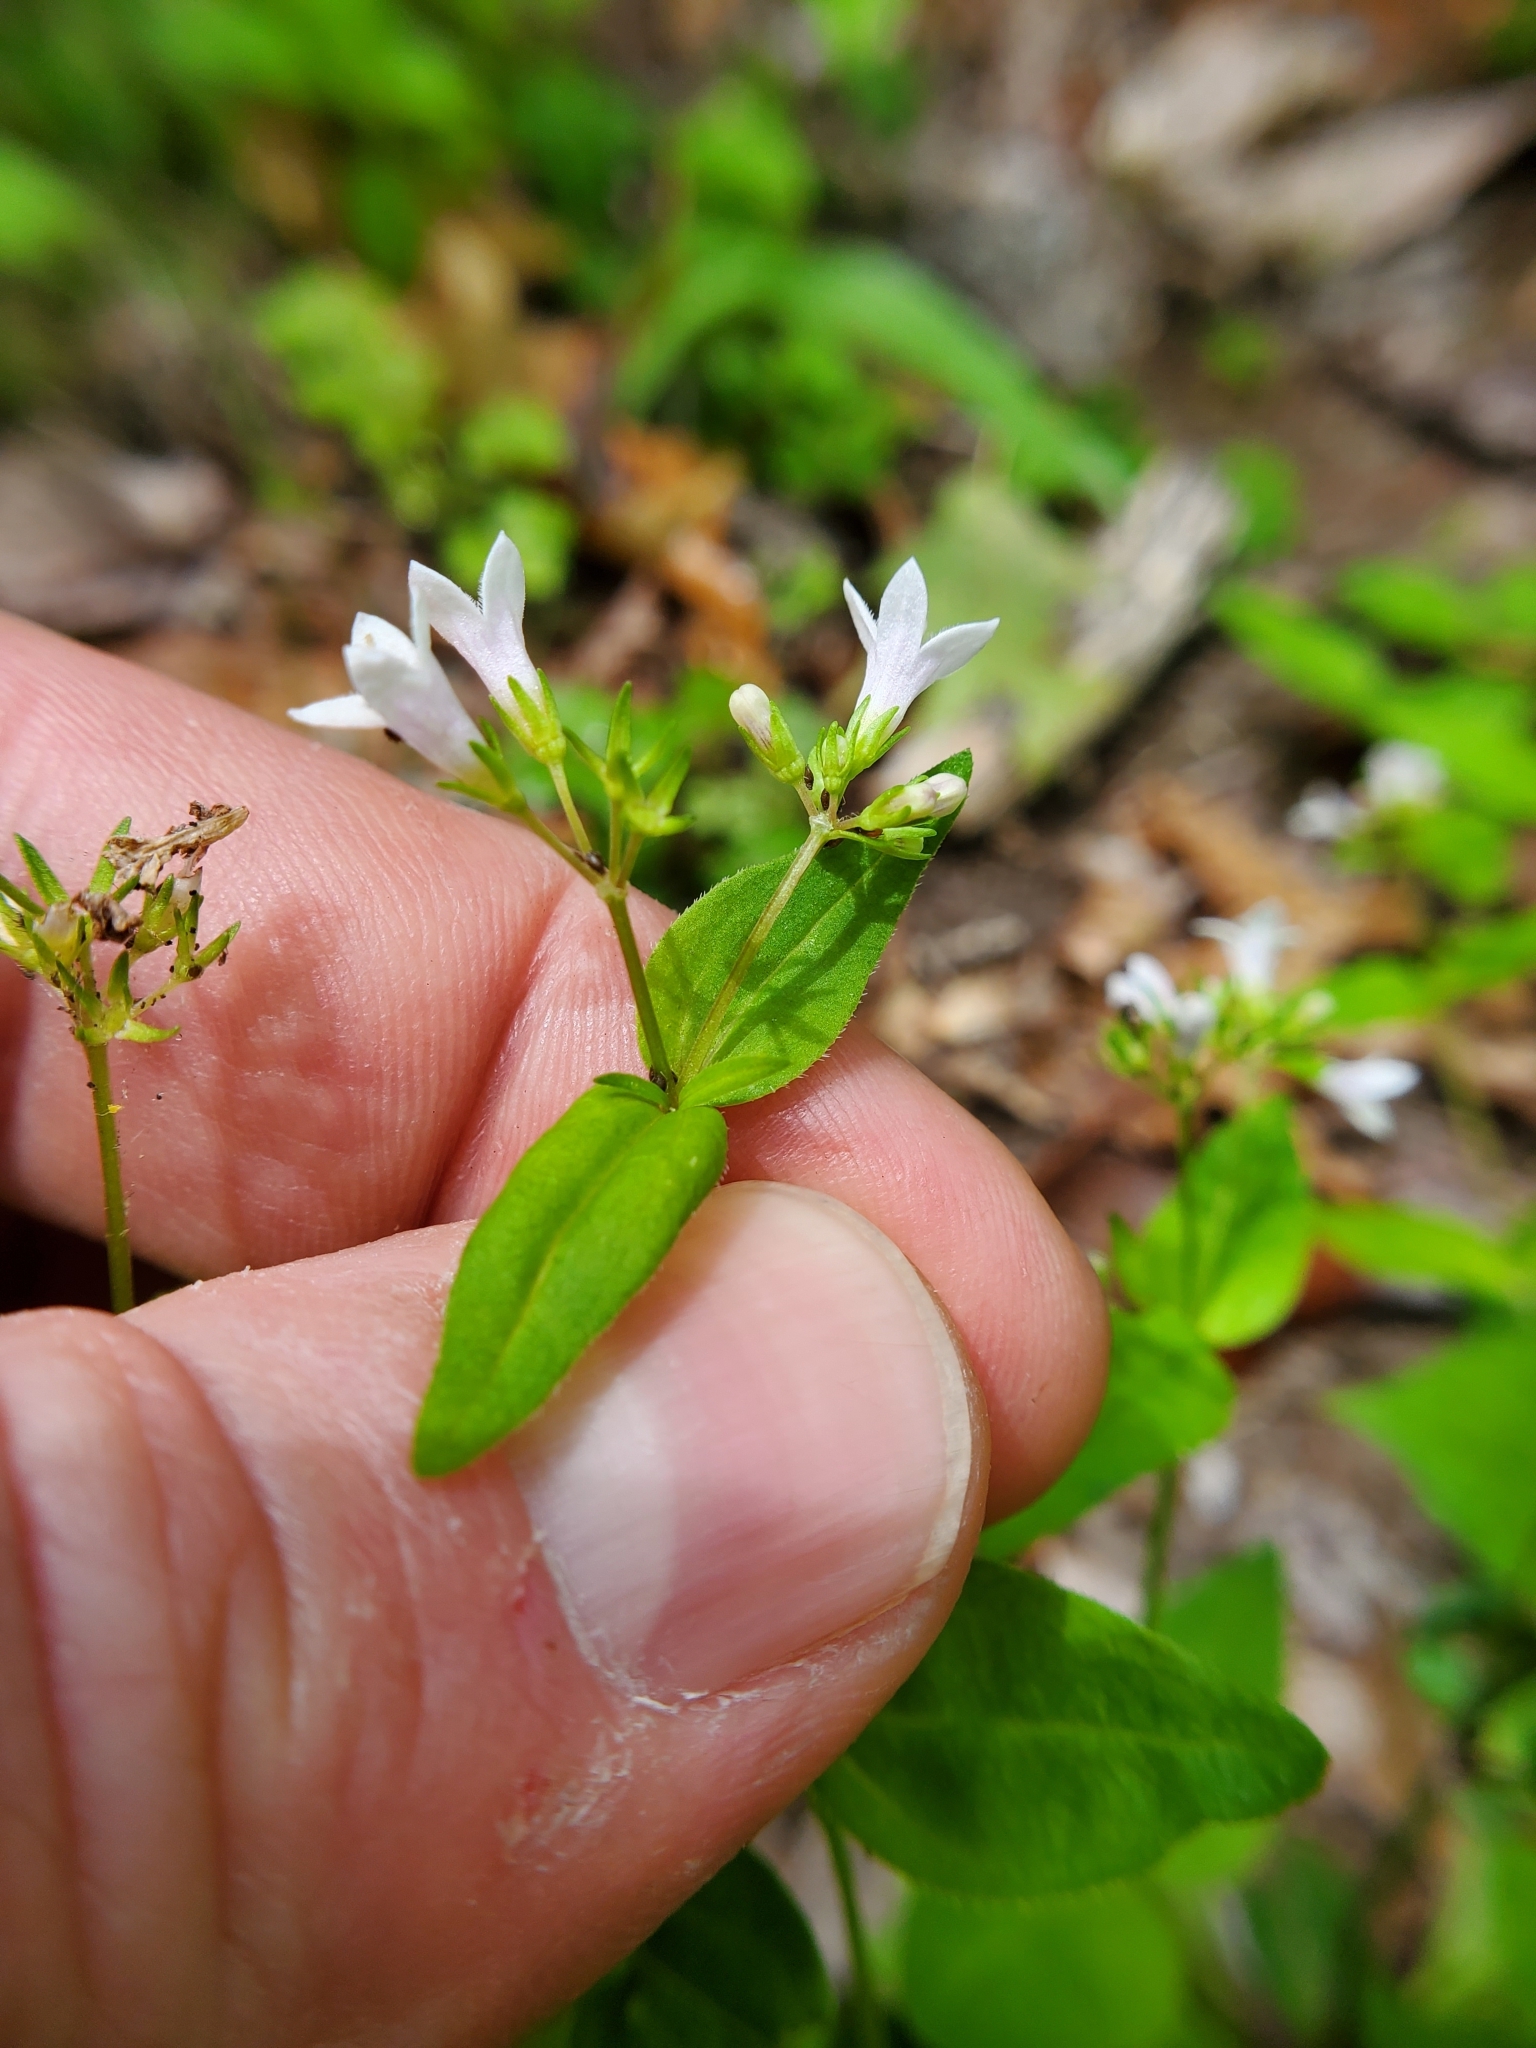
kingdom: Plantae
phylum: Tracheophyta
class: Magnoliopsida
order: Gentianales
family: Rubiaceae
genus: Houstonia
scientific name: Houstonia purpurea
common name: Summer bluet
